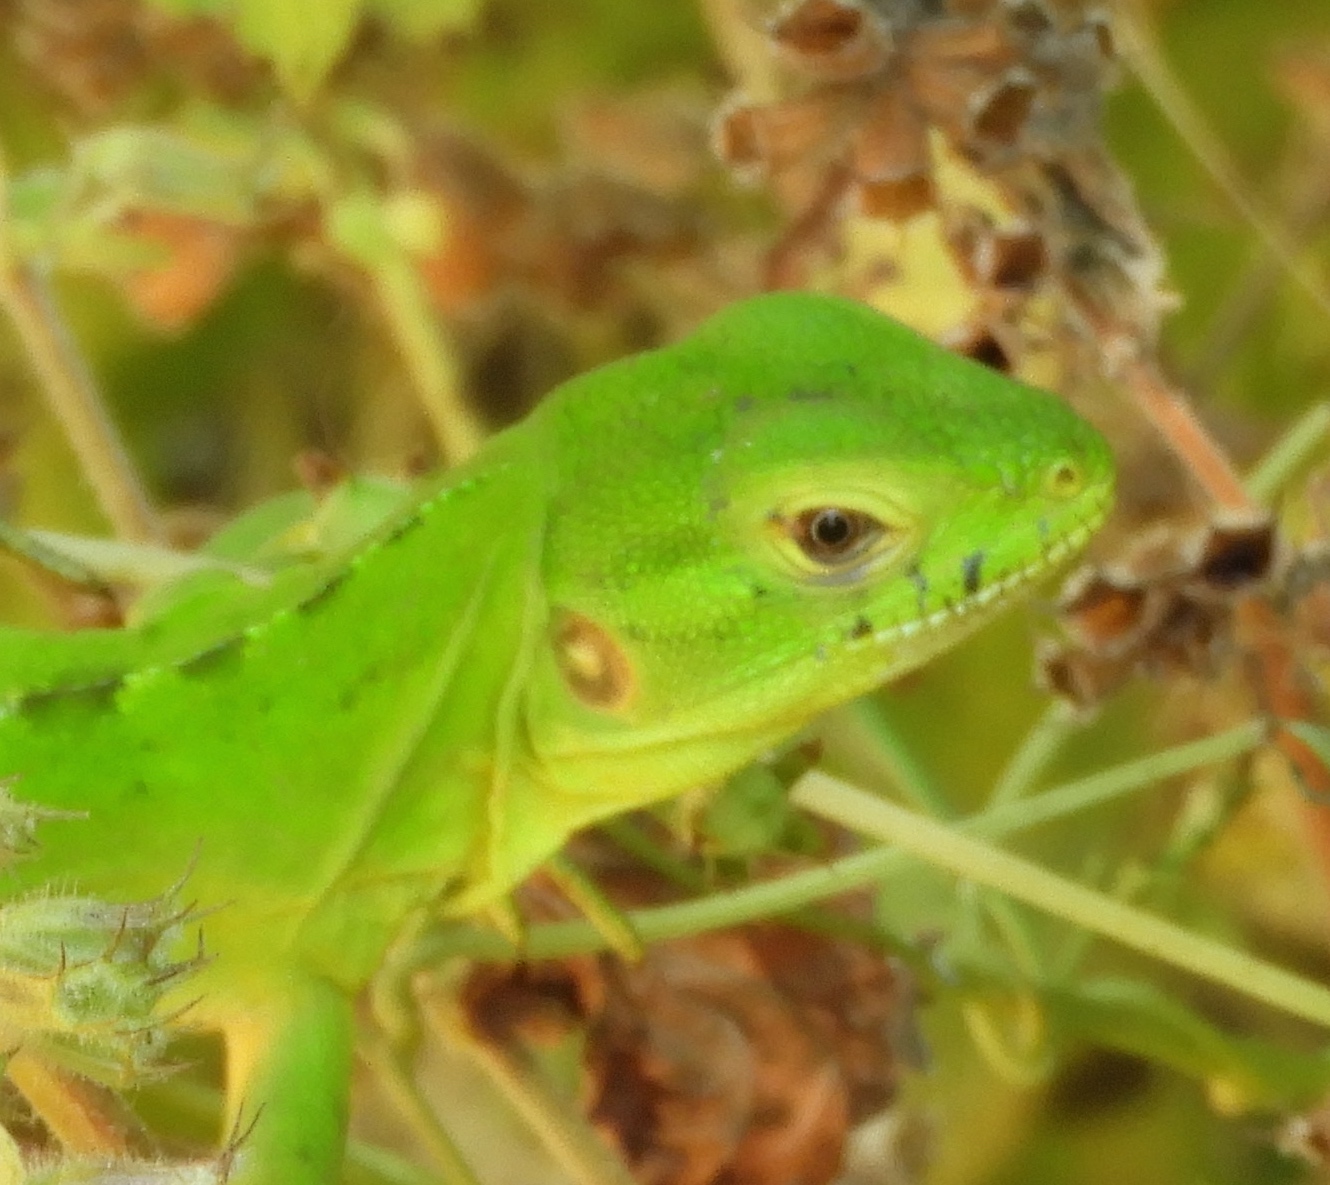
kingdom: Animalia
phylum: Chordata
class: Squamata
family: Iguanidae
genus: Ctenosaura
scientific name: Ctenosaura pectinata
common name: Guerreran spiny-tailed iguana
